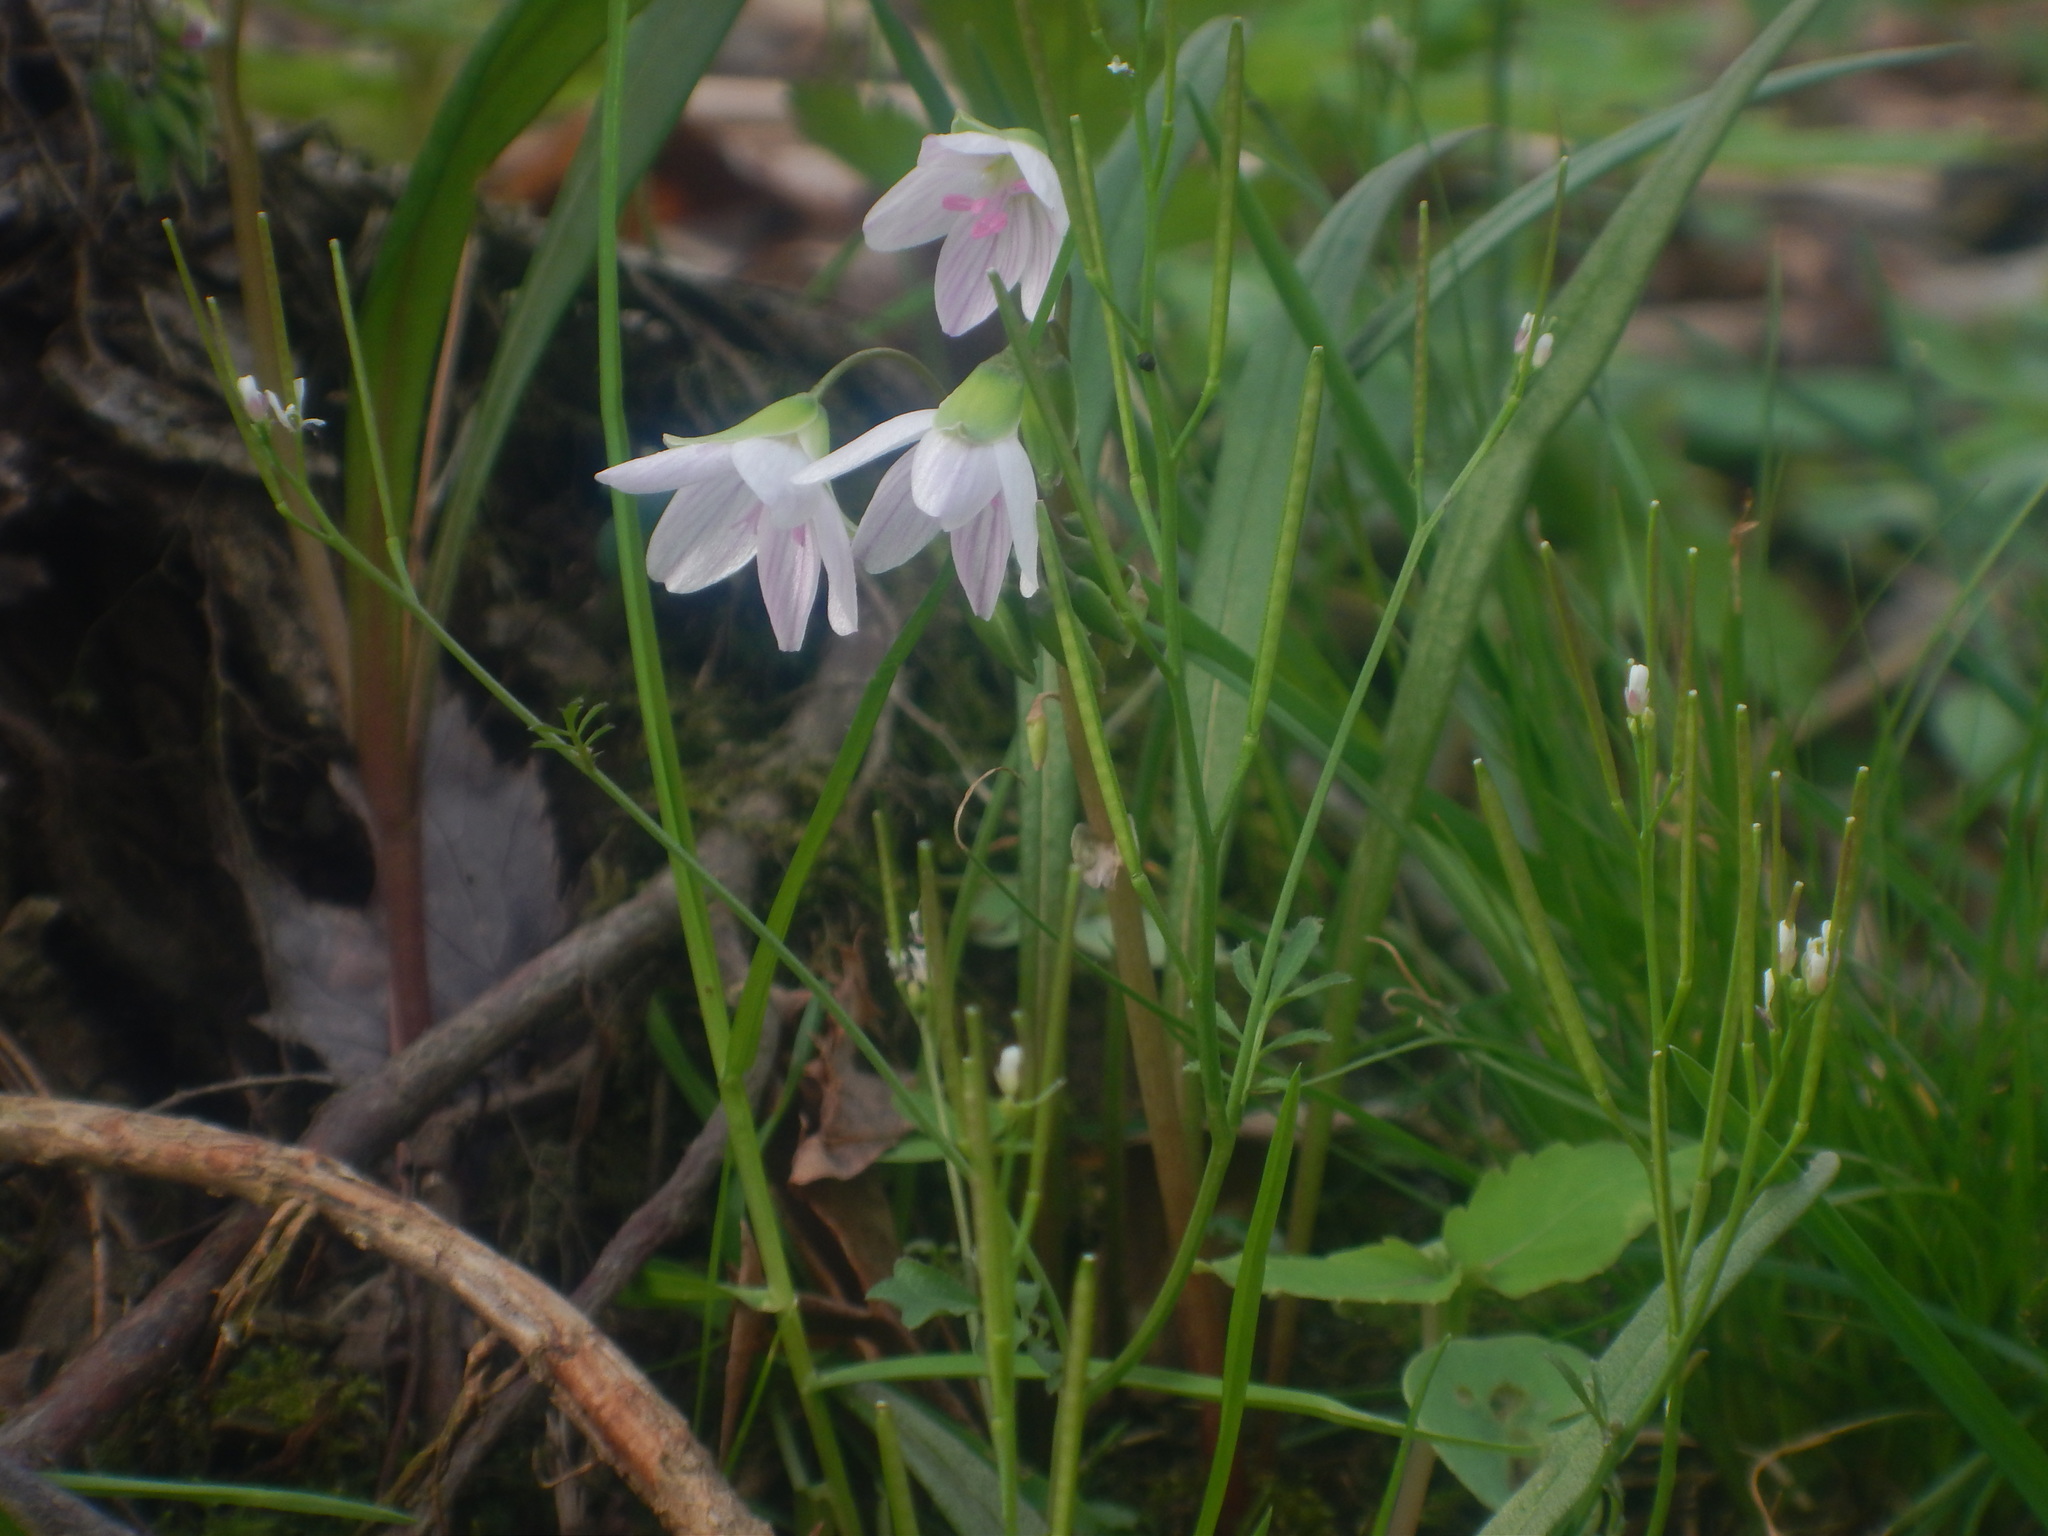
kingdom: Plantae
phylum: Tracheophyta
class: Magnoliopsida
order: Caryophyllales
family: Montiaceae
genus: Claytonia
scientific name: Claytonia virginica
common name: Virginia springbeauty
